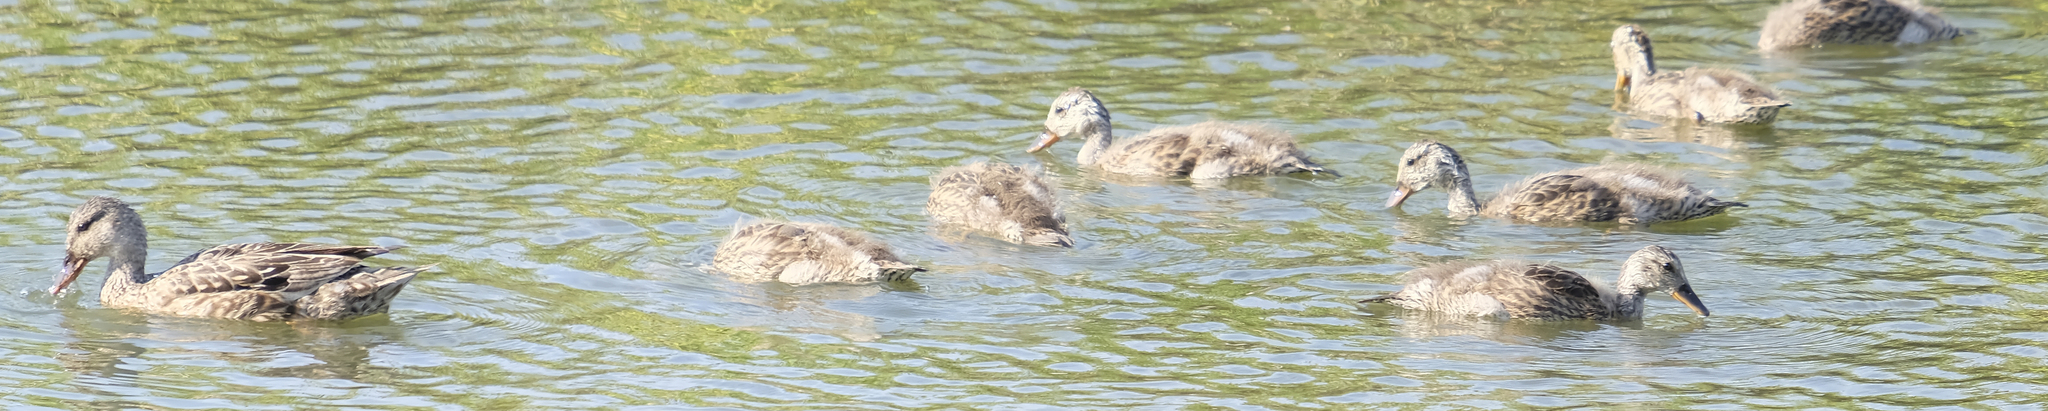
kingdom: Animalia
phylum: Chordata
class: Aves
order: Anseriformes
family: Anatidae
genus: Anas
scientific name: Anas platyrhynchos
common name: Mallard
